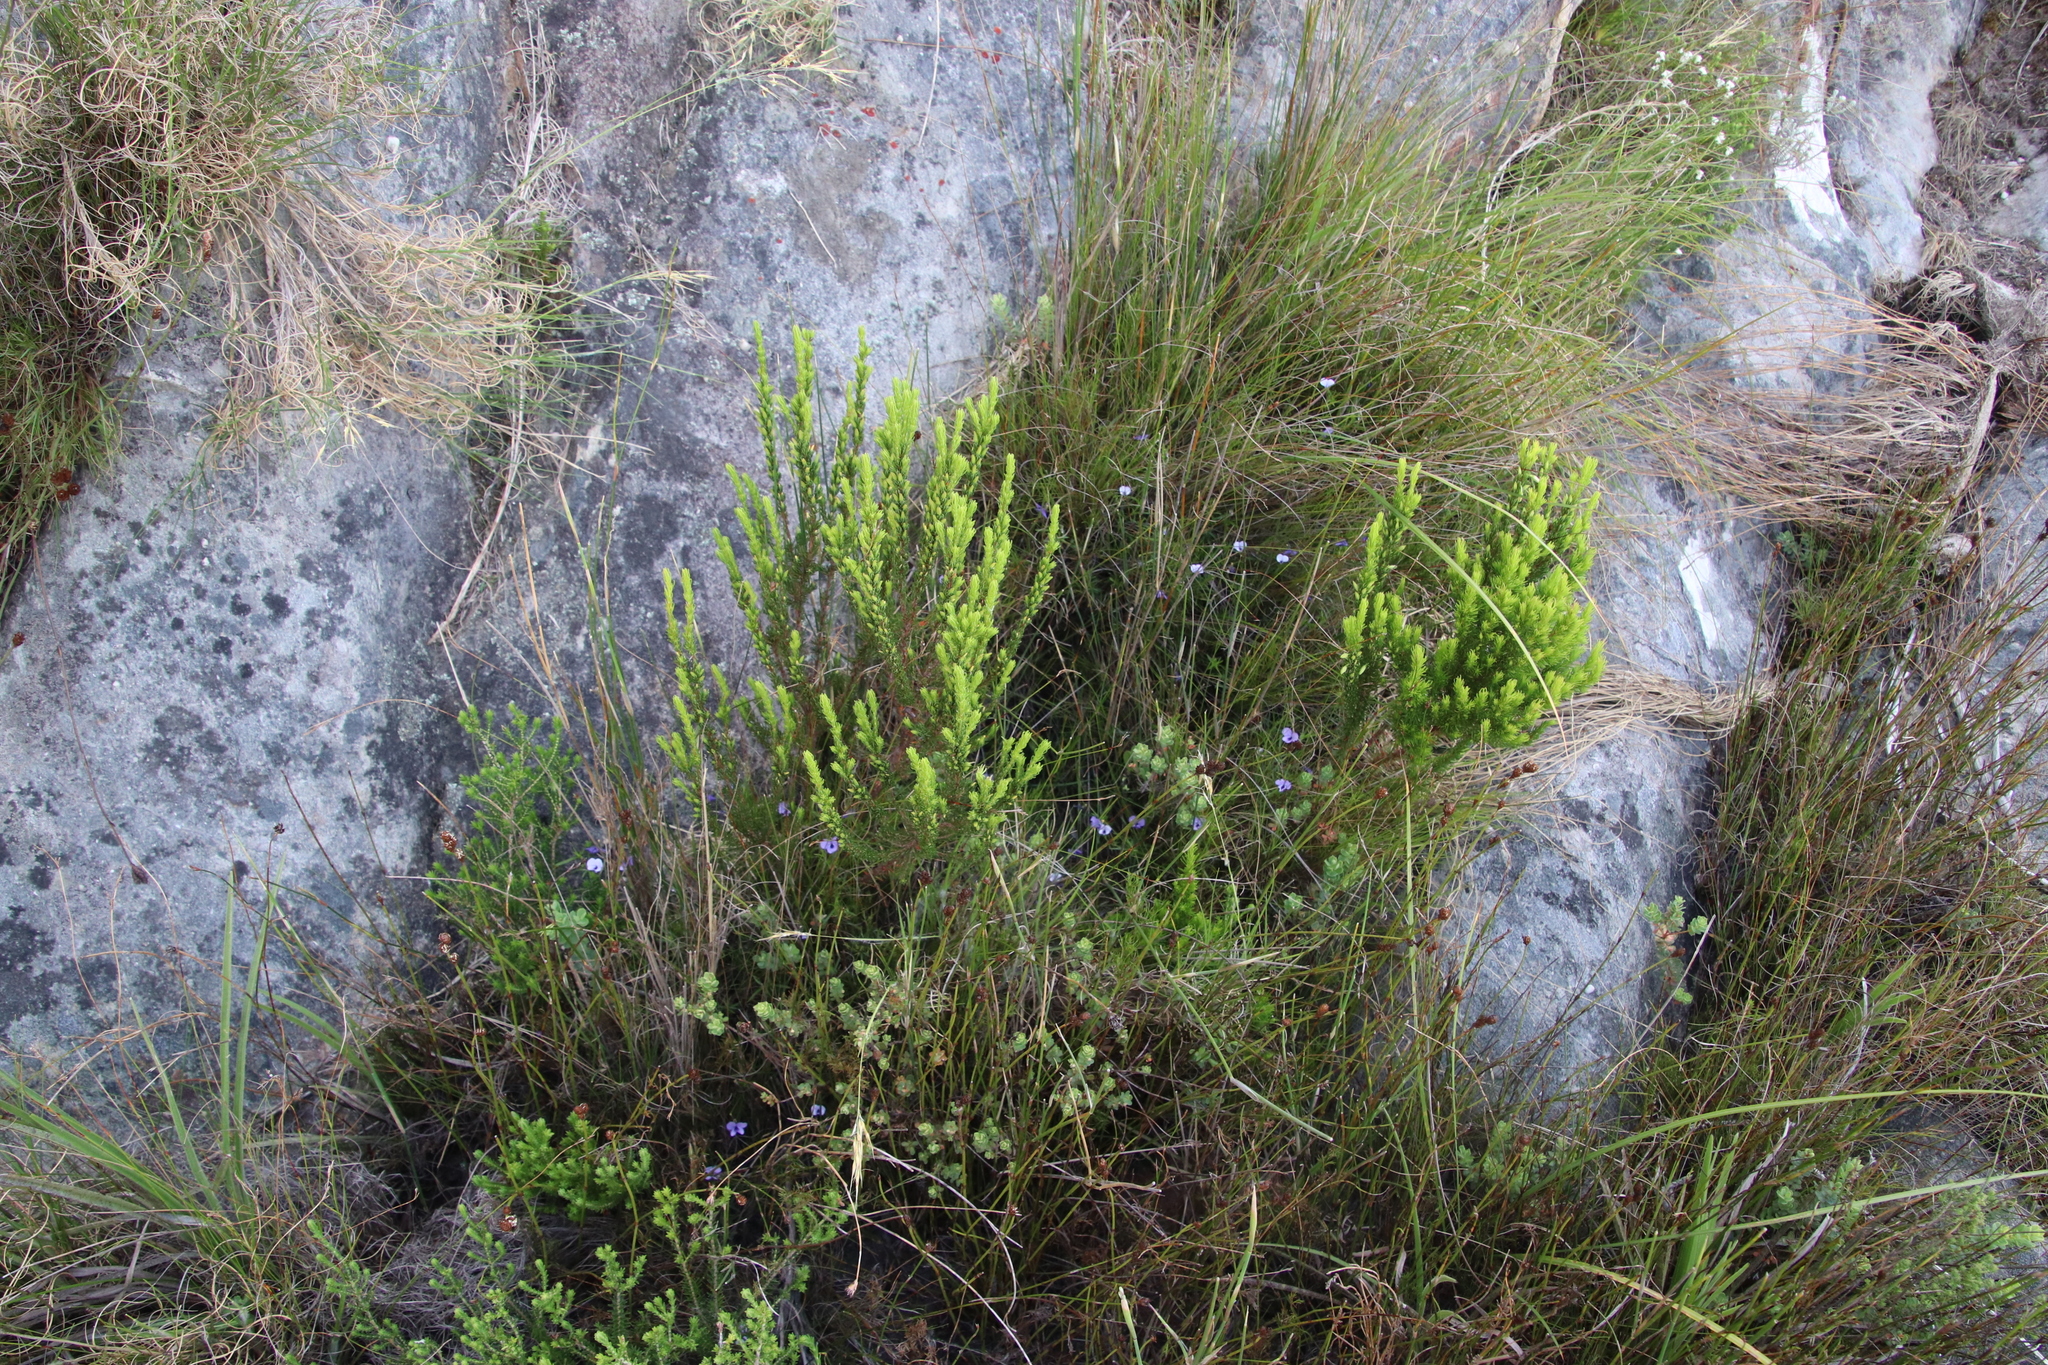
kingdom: Plantae
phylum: Tracheophyta
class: Magnoliopsida
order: Malpighiales
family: Violaceae
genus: Viola
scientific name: Viola decumbens
